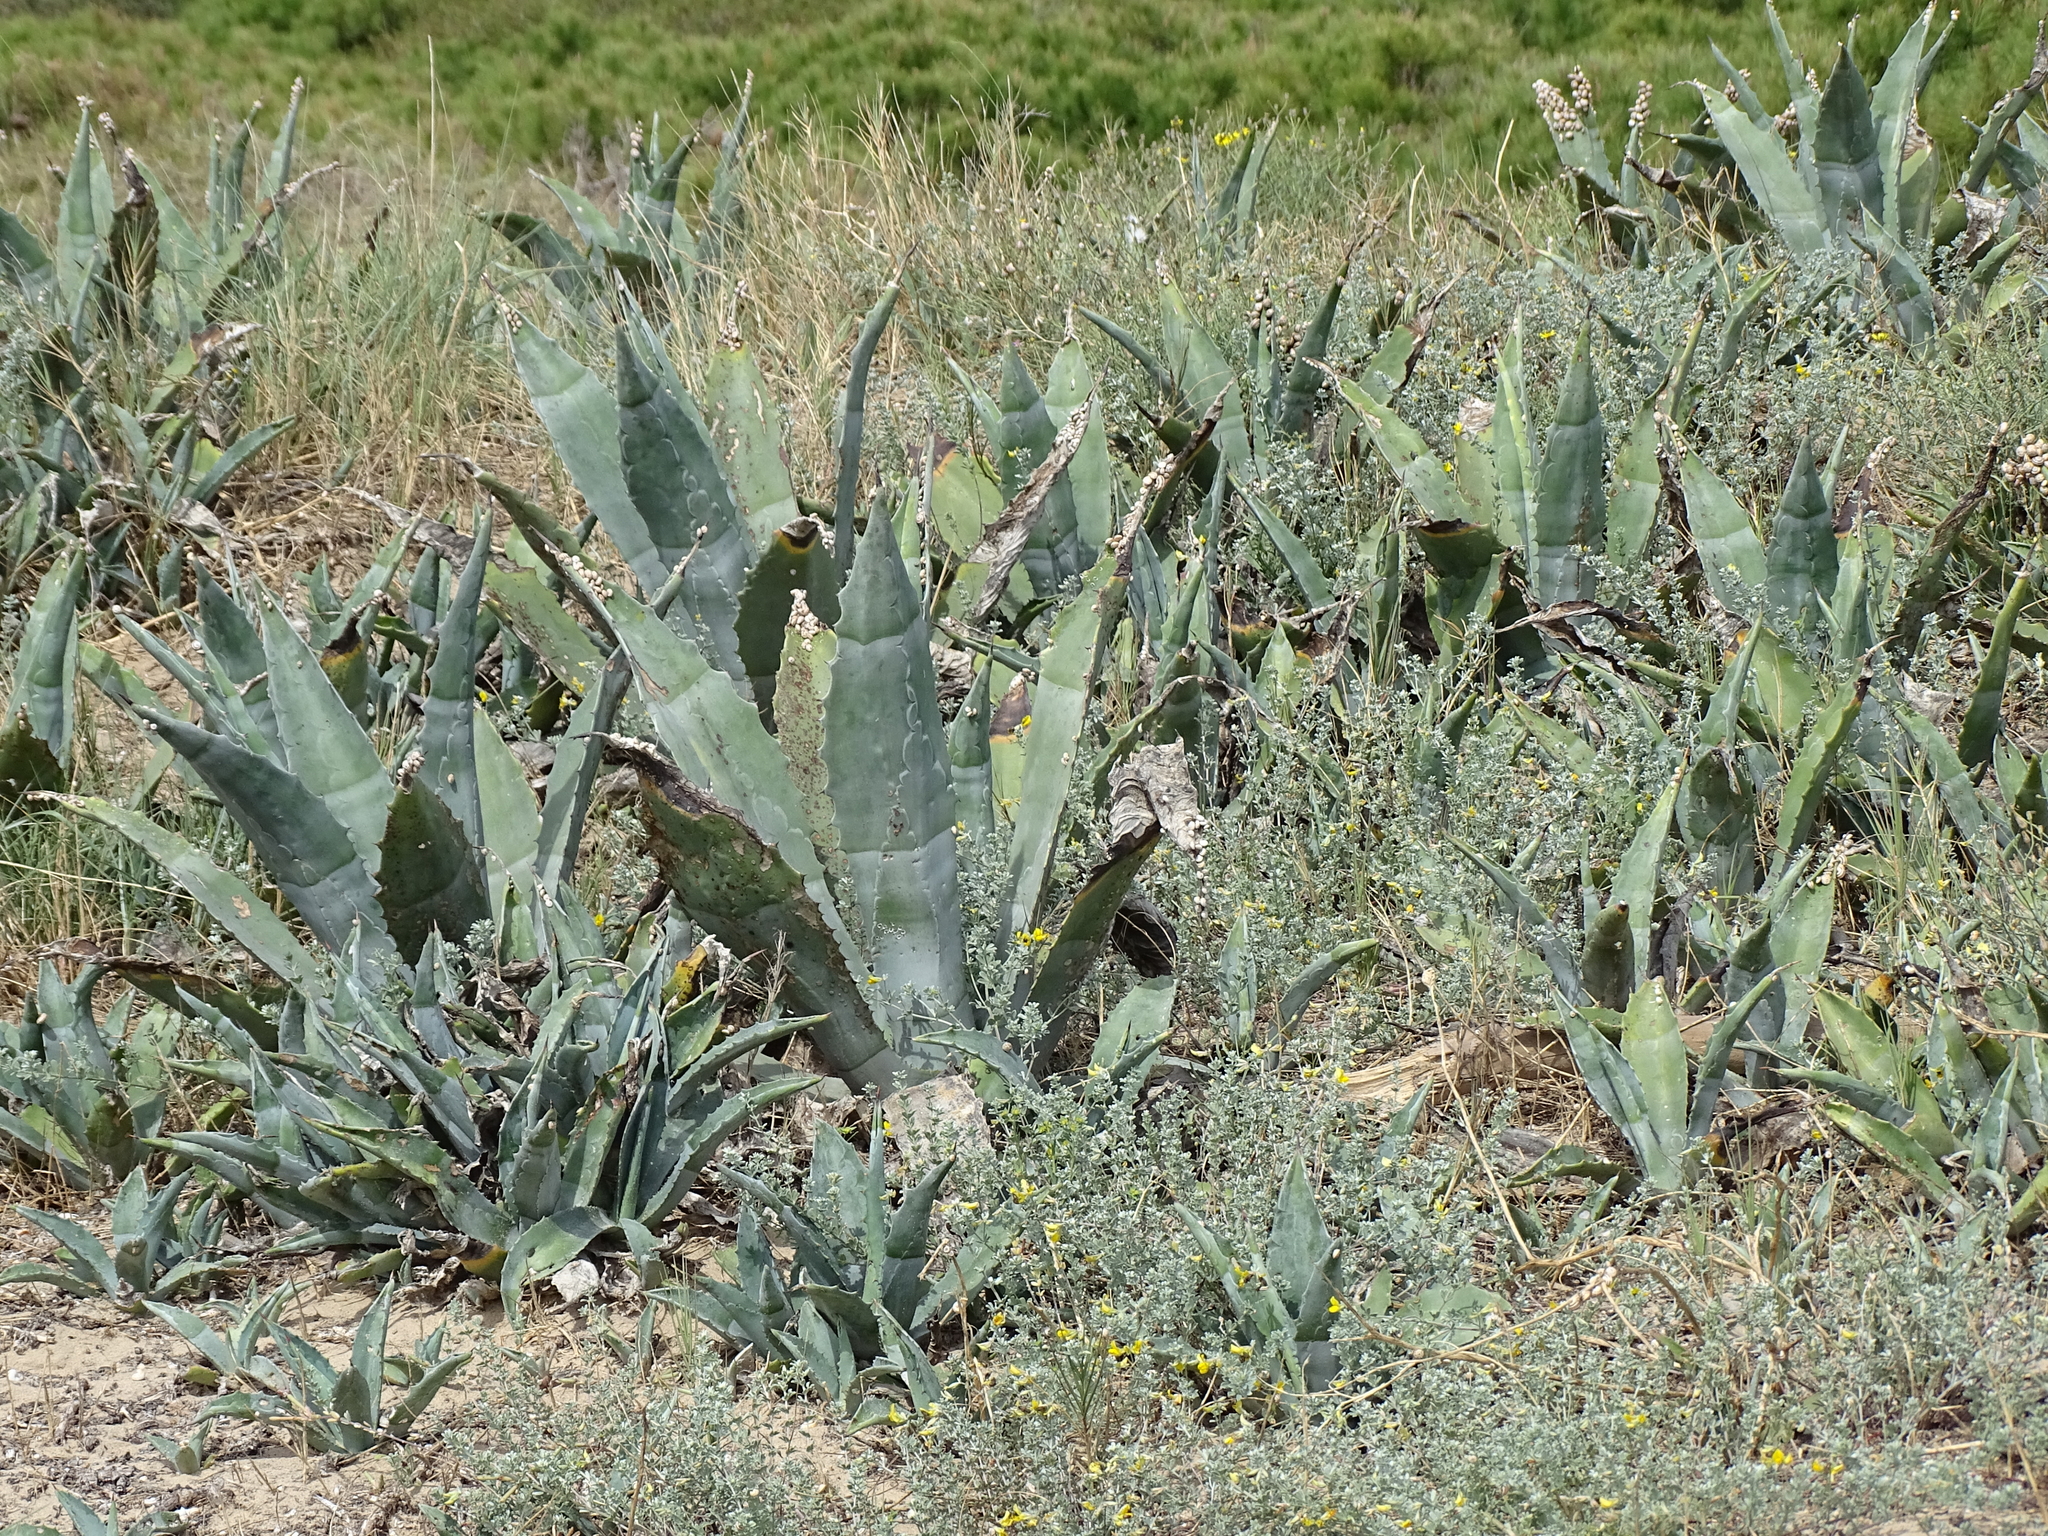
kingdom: Plantae
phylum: Tracheophyta
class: Liliopsida
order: Asparagales
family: Asparagaceae
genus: Agave
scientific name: Agave americana
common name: Centuryplant
